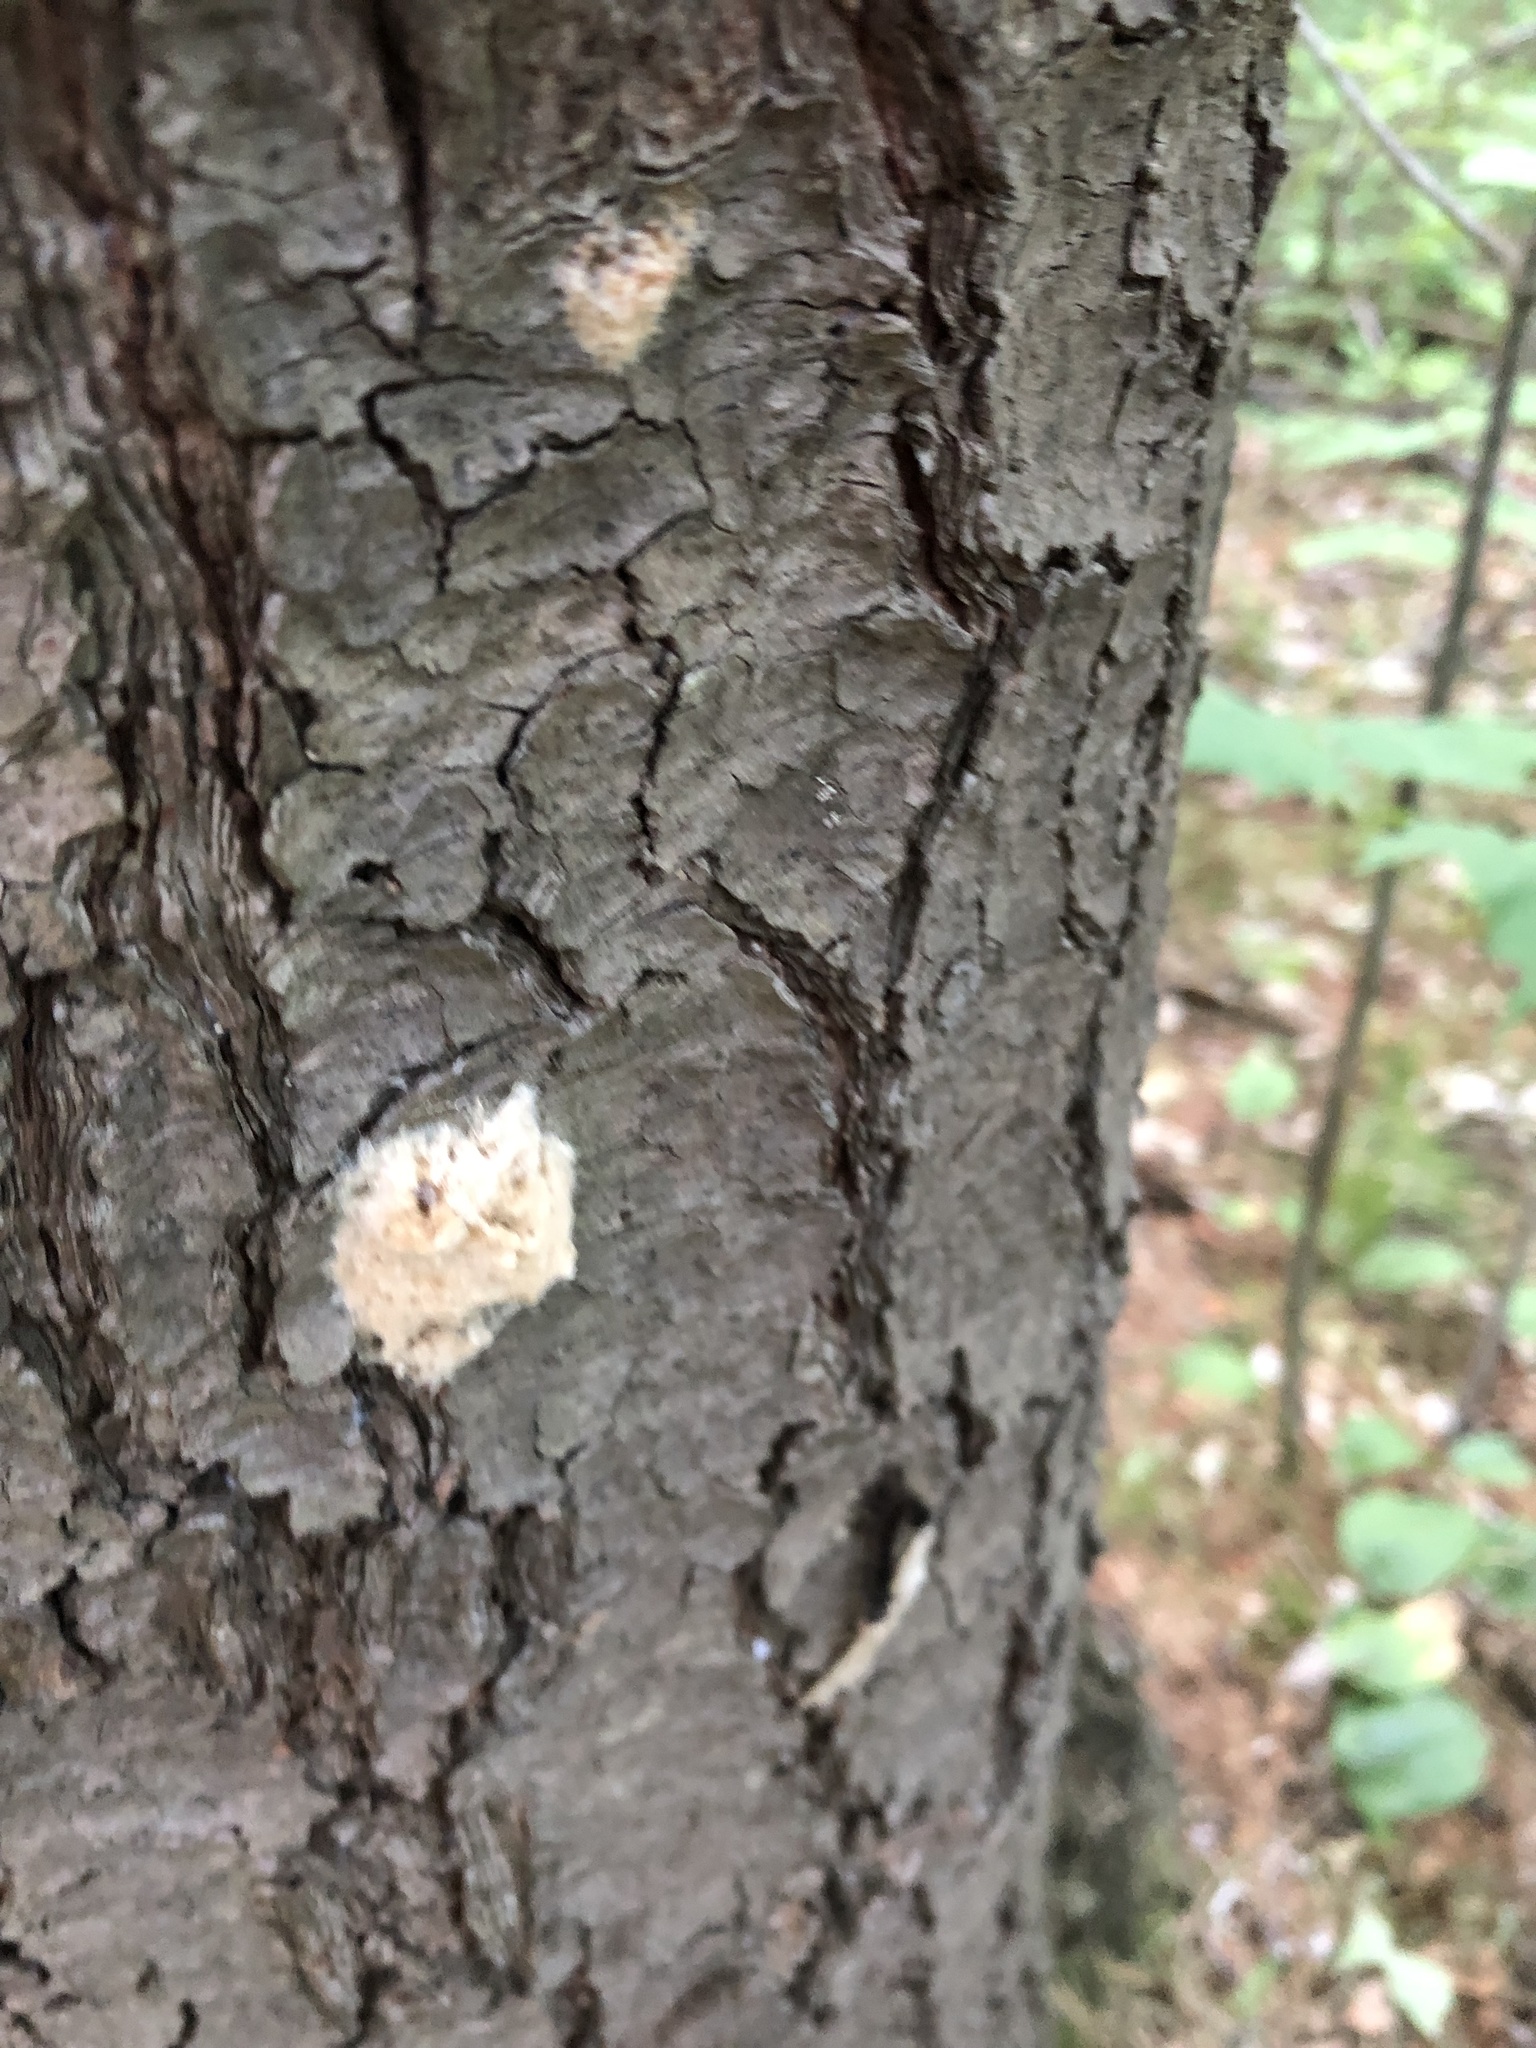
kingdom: Animalia
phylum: Arthropoda
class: Insecta
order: Lepidoptera
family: Erebidae
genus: Lymantria
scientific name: Lymantria dispar
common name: Gypsy moth
